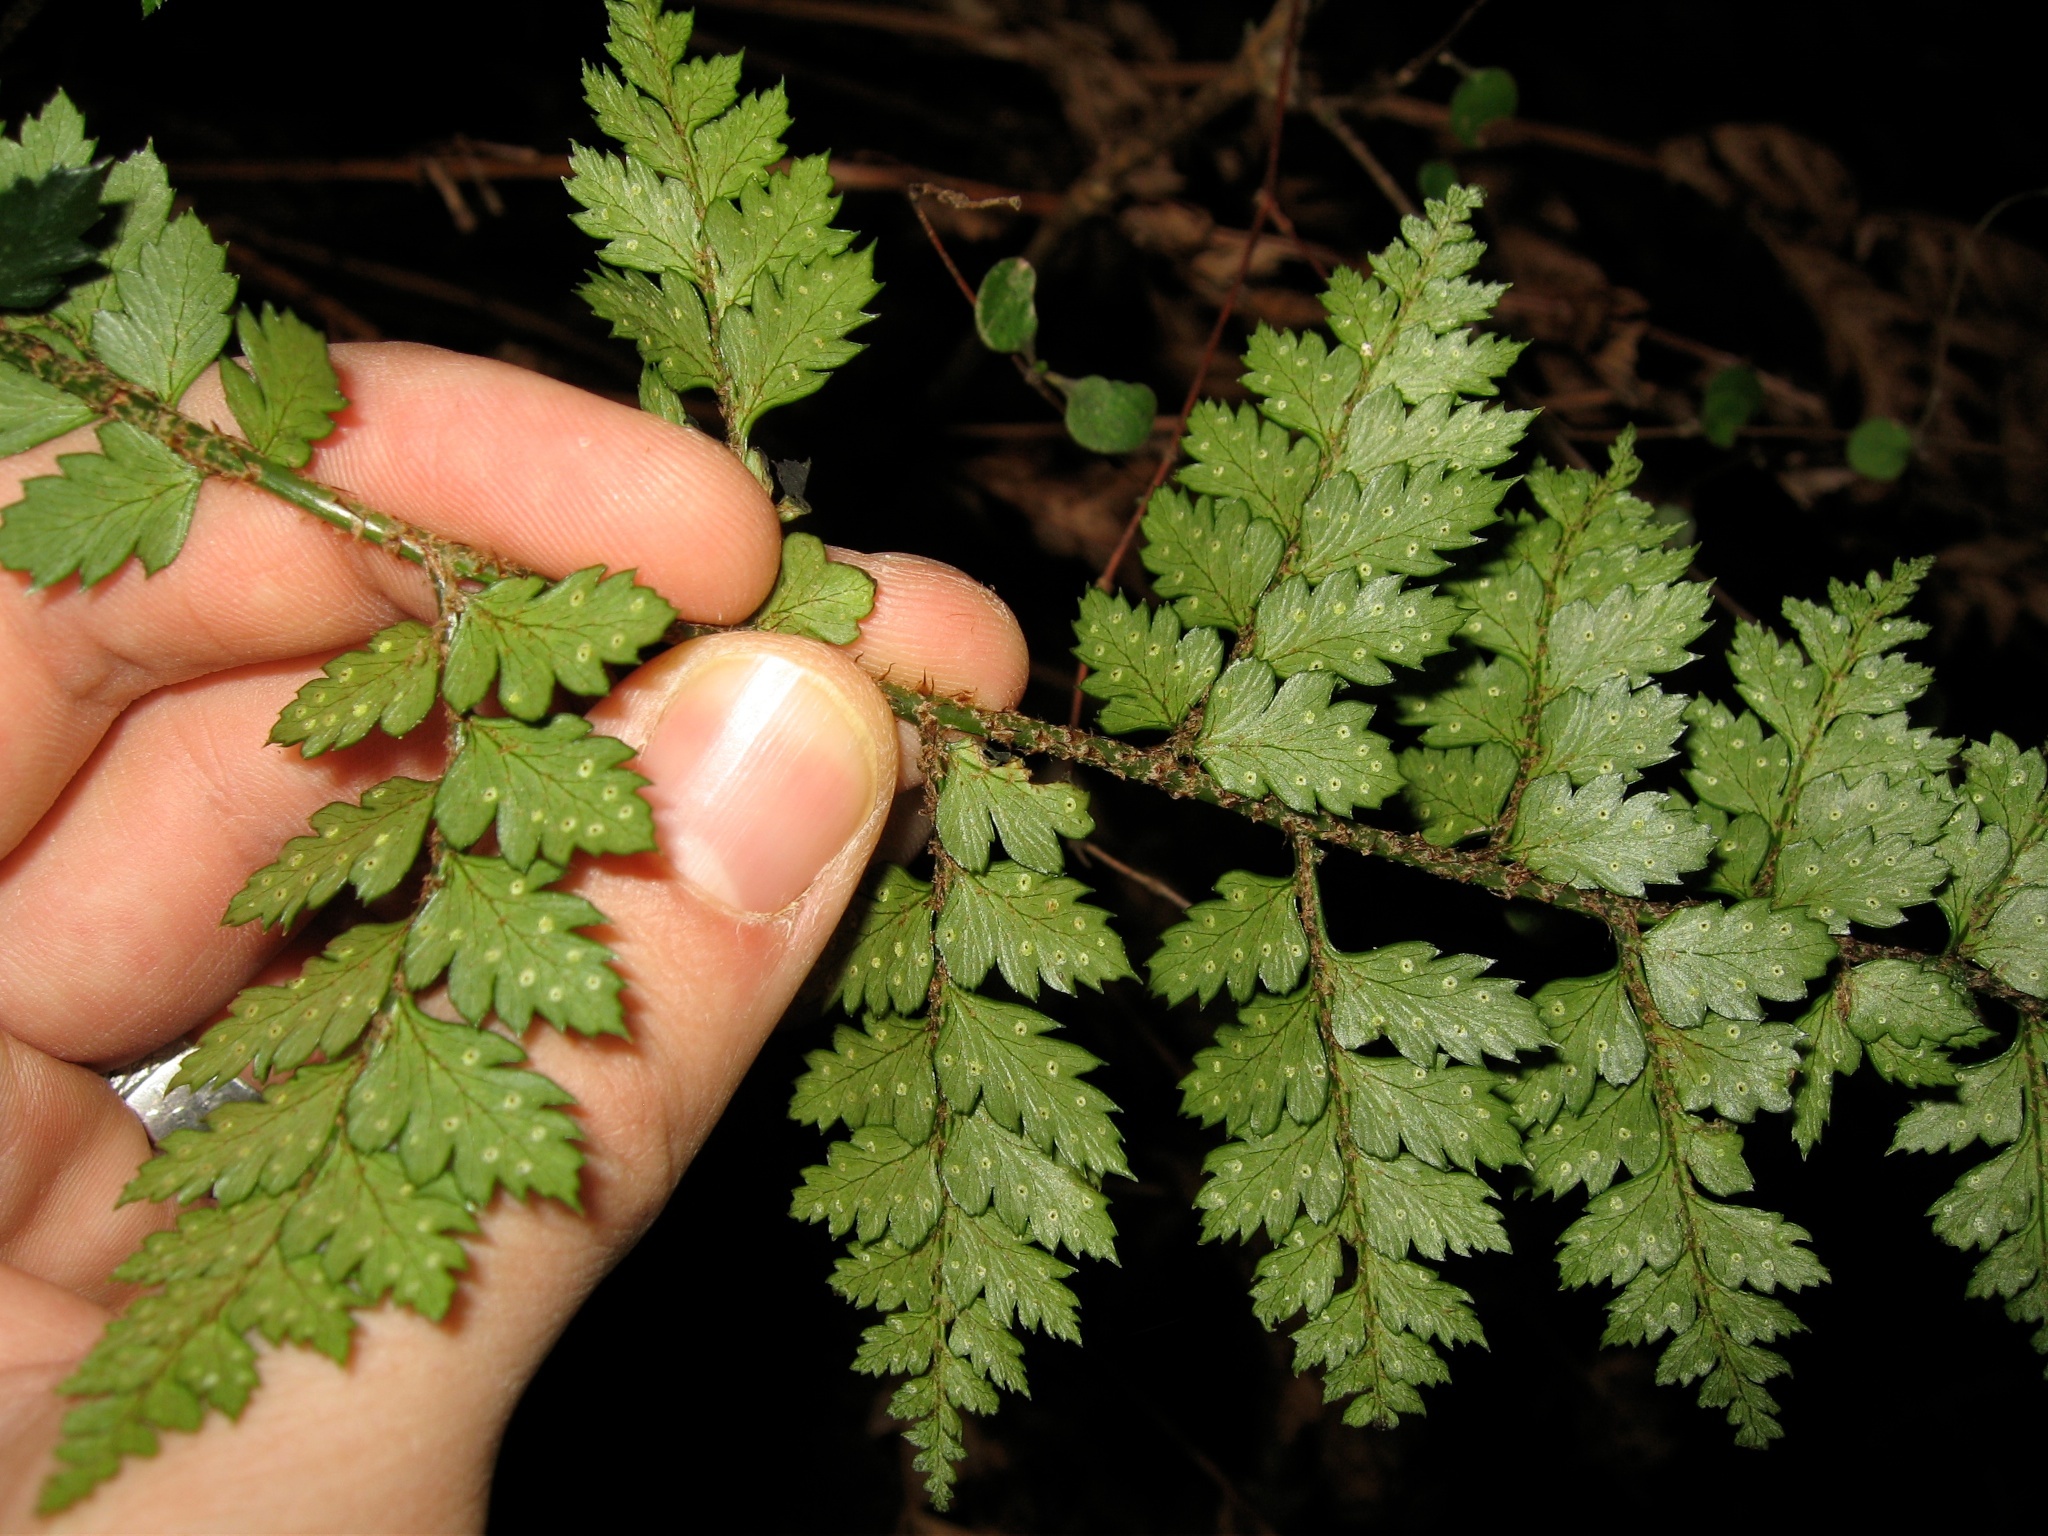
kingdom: Plantae
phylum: Tracheophyta
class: Polypodiopsida
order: Polypodiales
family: Dryopteridaceae
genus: Polystichum
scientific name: Polystichum oculatum
